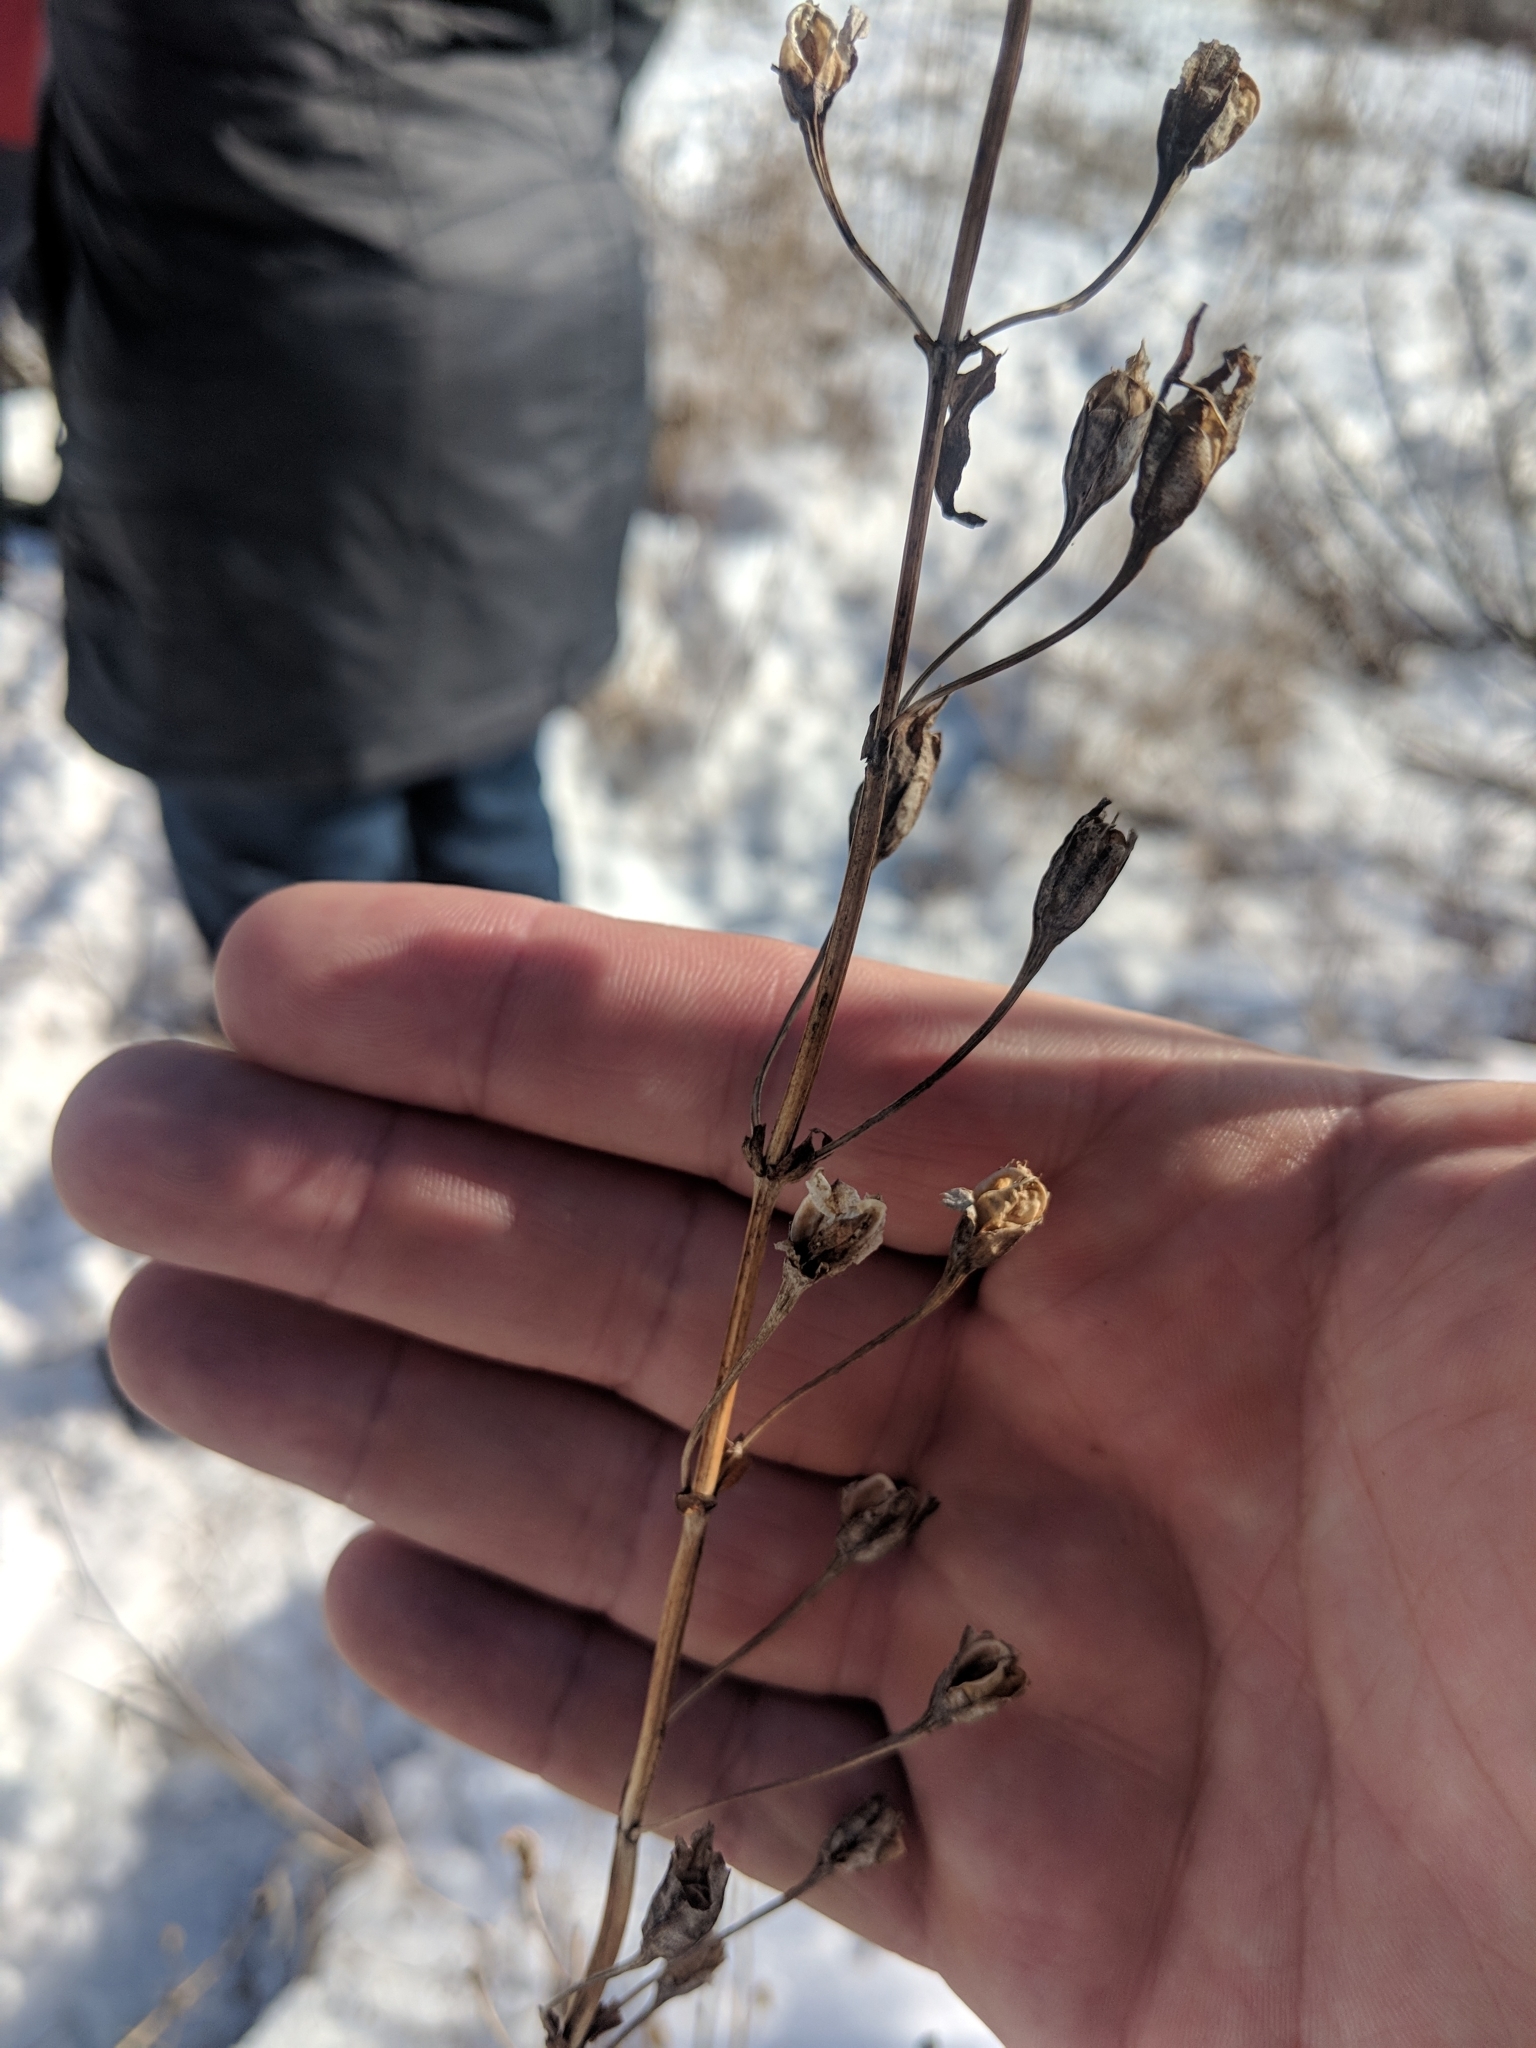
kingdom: Plantae
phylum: Tracheophyta
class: Magnoliopsida
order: Lamiales
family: Phrymaceae
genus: Mimulus
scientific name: Mimulus ringens
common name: Allegheny monkeyflower
